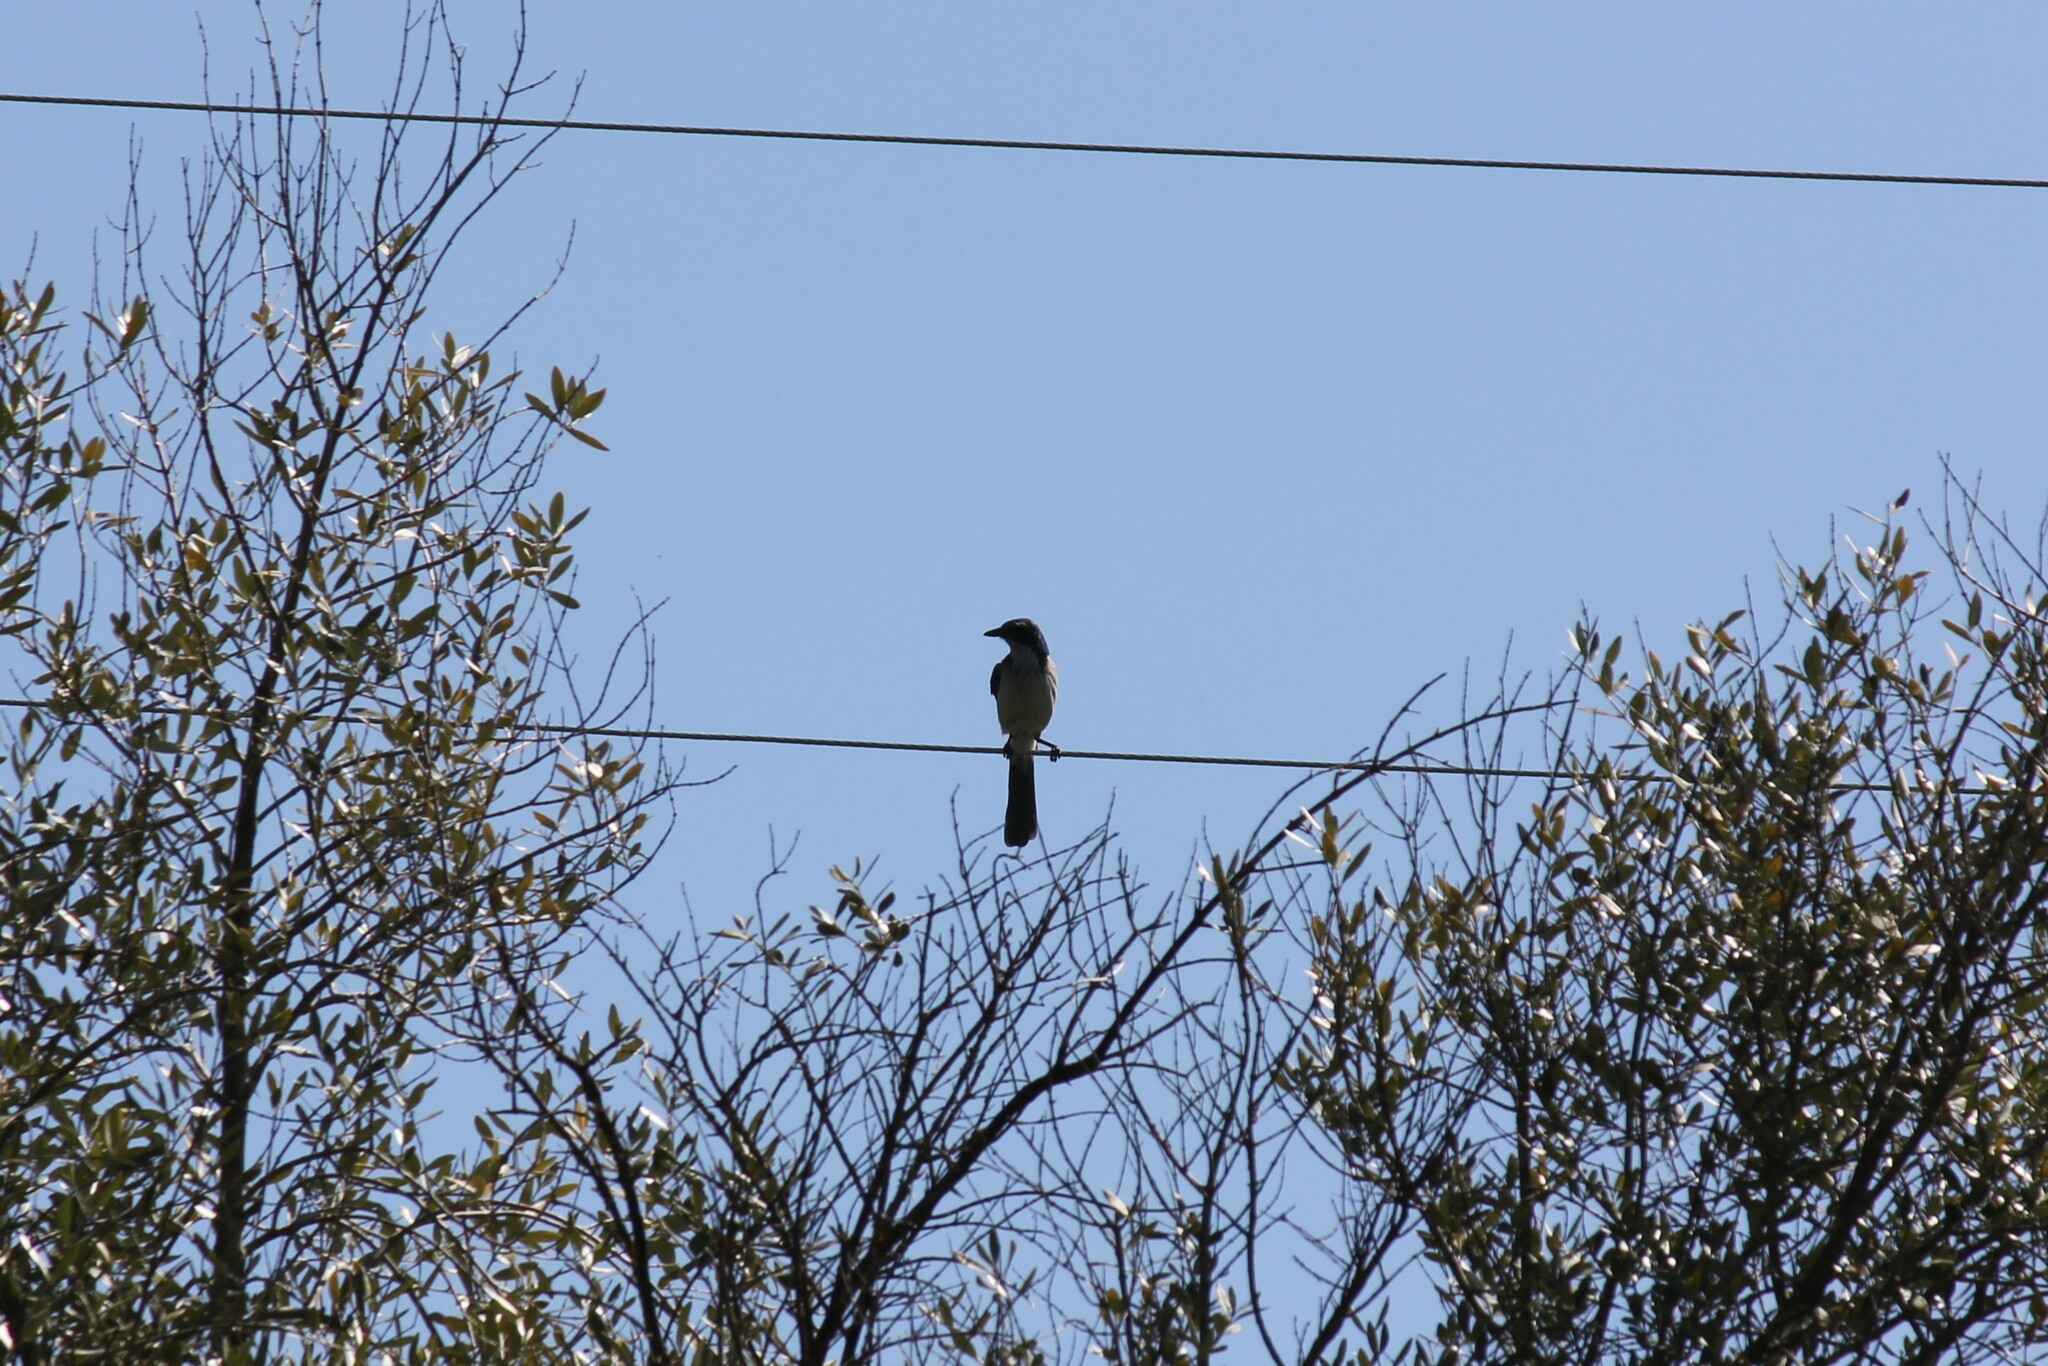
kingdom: Animalia
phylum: Chordata
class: Aves
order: Passeriformes
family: Corvidae
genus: Aphelocoma
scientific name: Aphelocoma californica
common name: California scrub-jay
